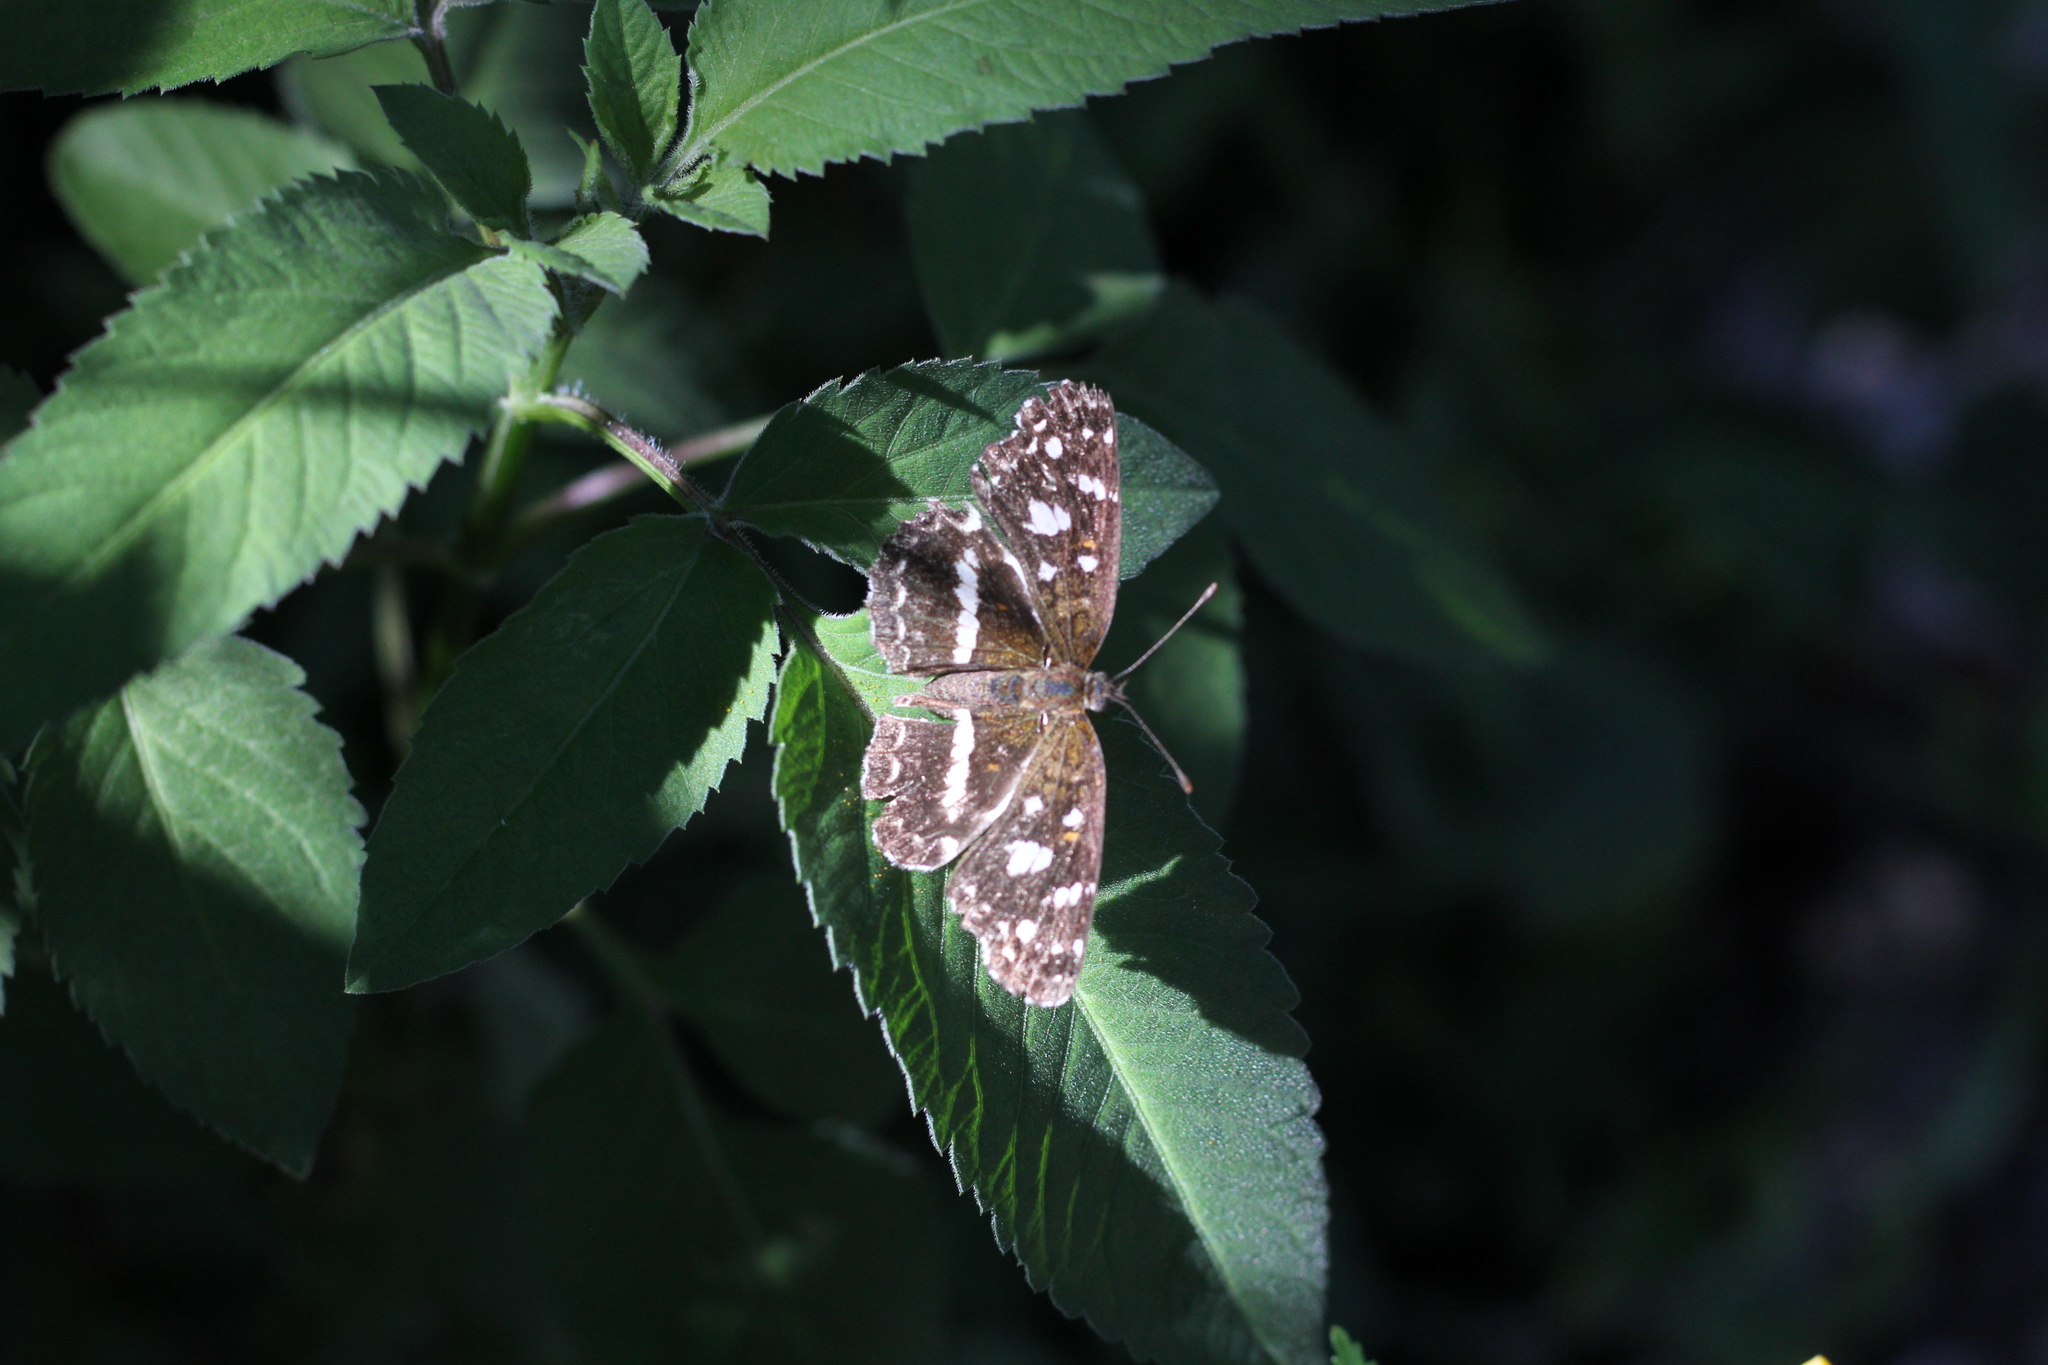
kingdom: Animalia
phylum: Arthropoda
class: Insecta
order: Lepidoptera
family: Nymphalidae
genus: Ortilia
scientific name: Ortilia ithra
